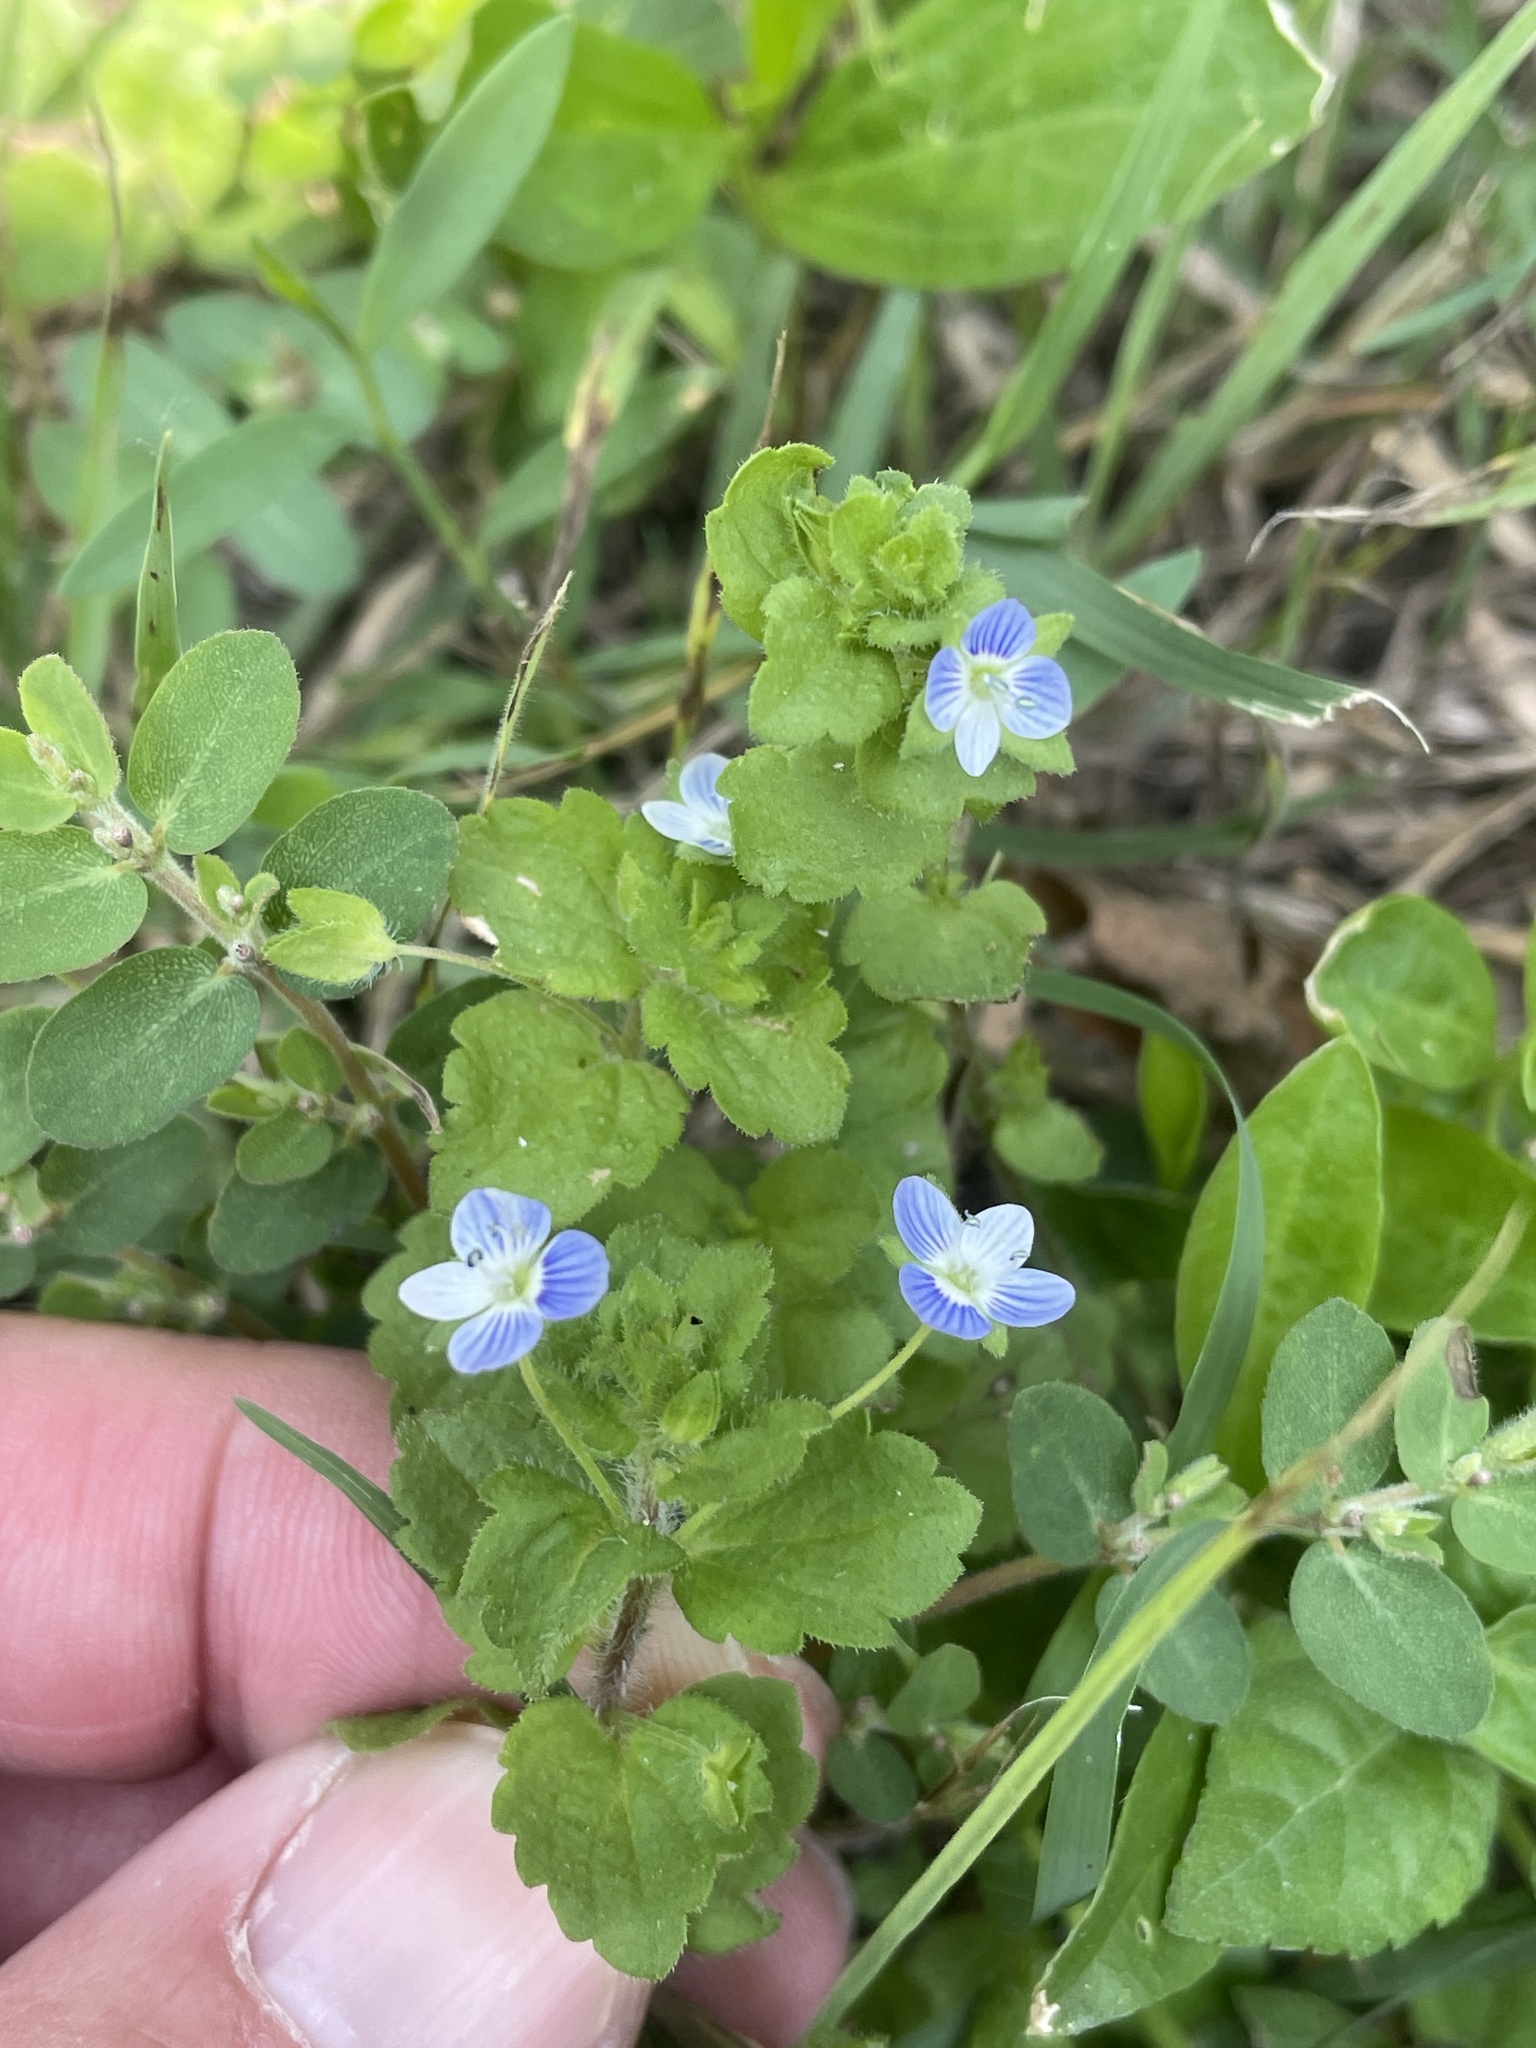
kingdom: Plantae
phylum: Tracheophyta
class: Magnoliopsida
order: Lamiales
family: Plantaginaceae
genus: Veronica
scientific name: Veronica persica
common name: Common field-speedwell
